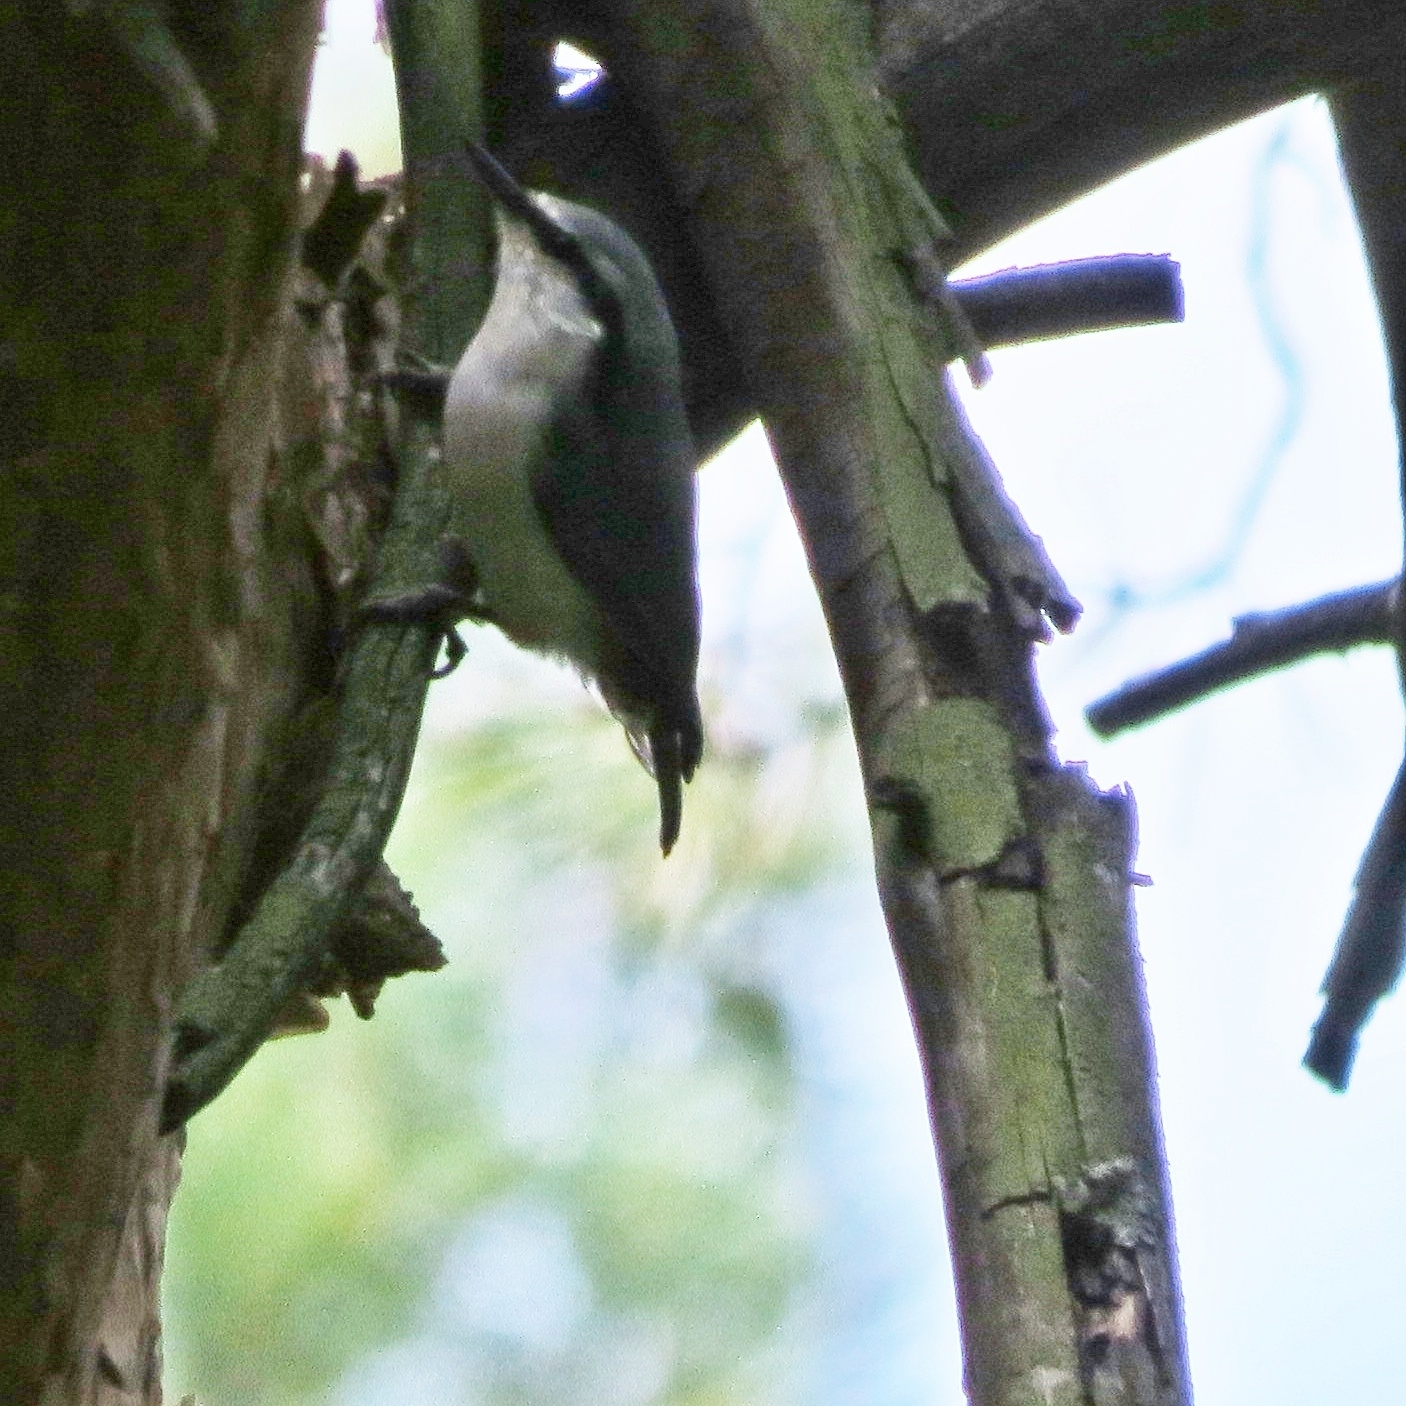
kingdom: Animalia
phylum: Chordata
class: Aves
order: Passeriformes
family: Sittidae
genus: Sitta
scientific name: Sitta europaea
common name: Eurasian nuthatch
